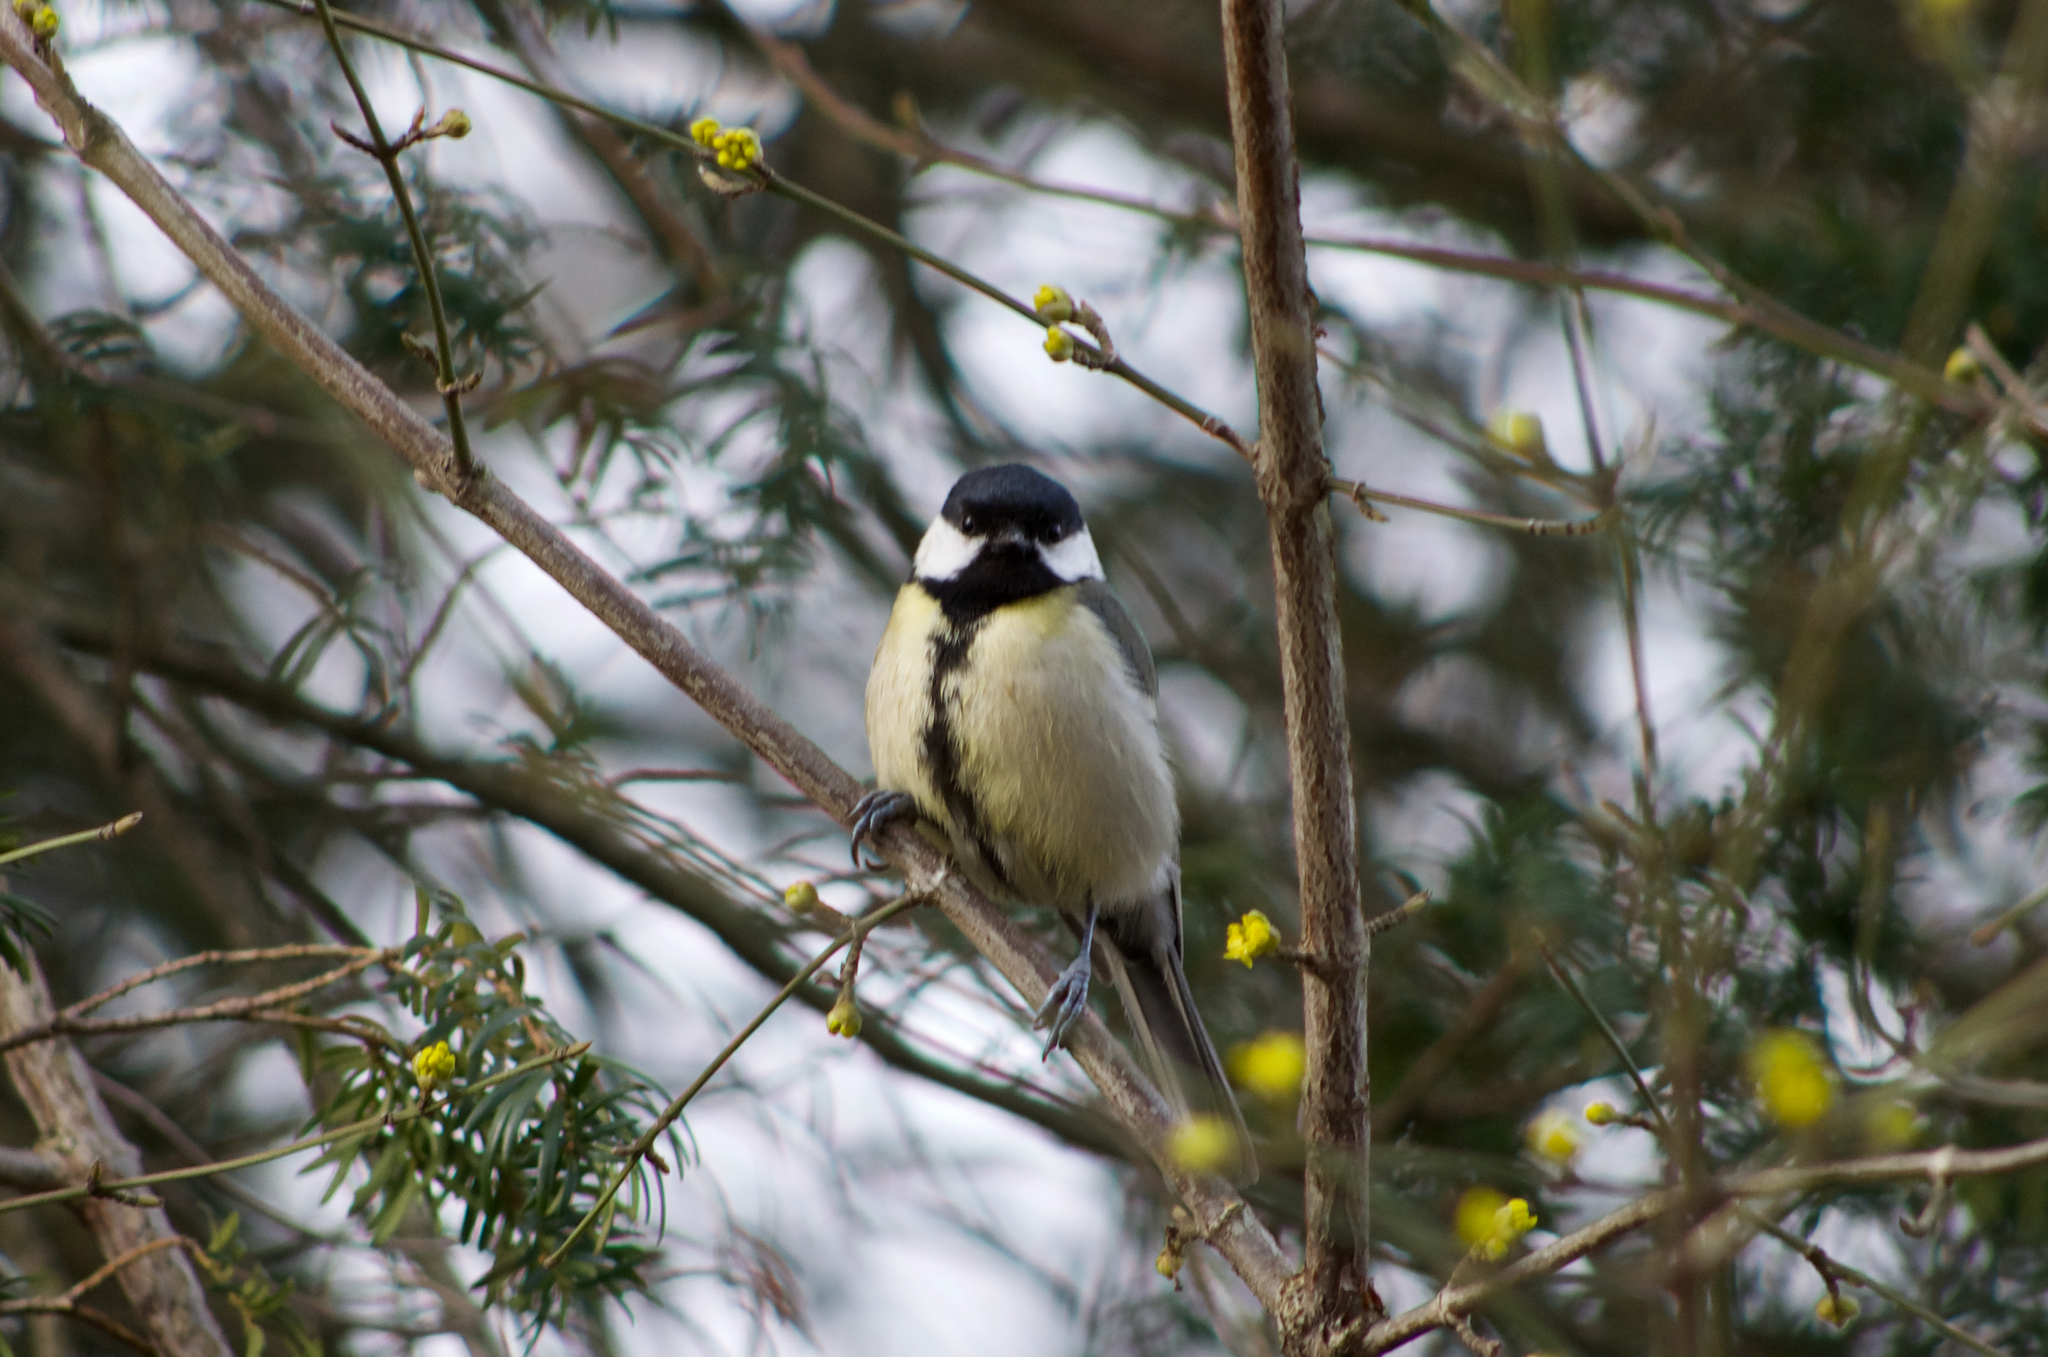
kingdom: Animalia
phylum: Chordata
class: Aves
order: Passeriformes
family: Paridae
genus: Parus
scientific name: Parus major
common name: Great tit
